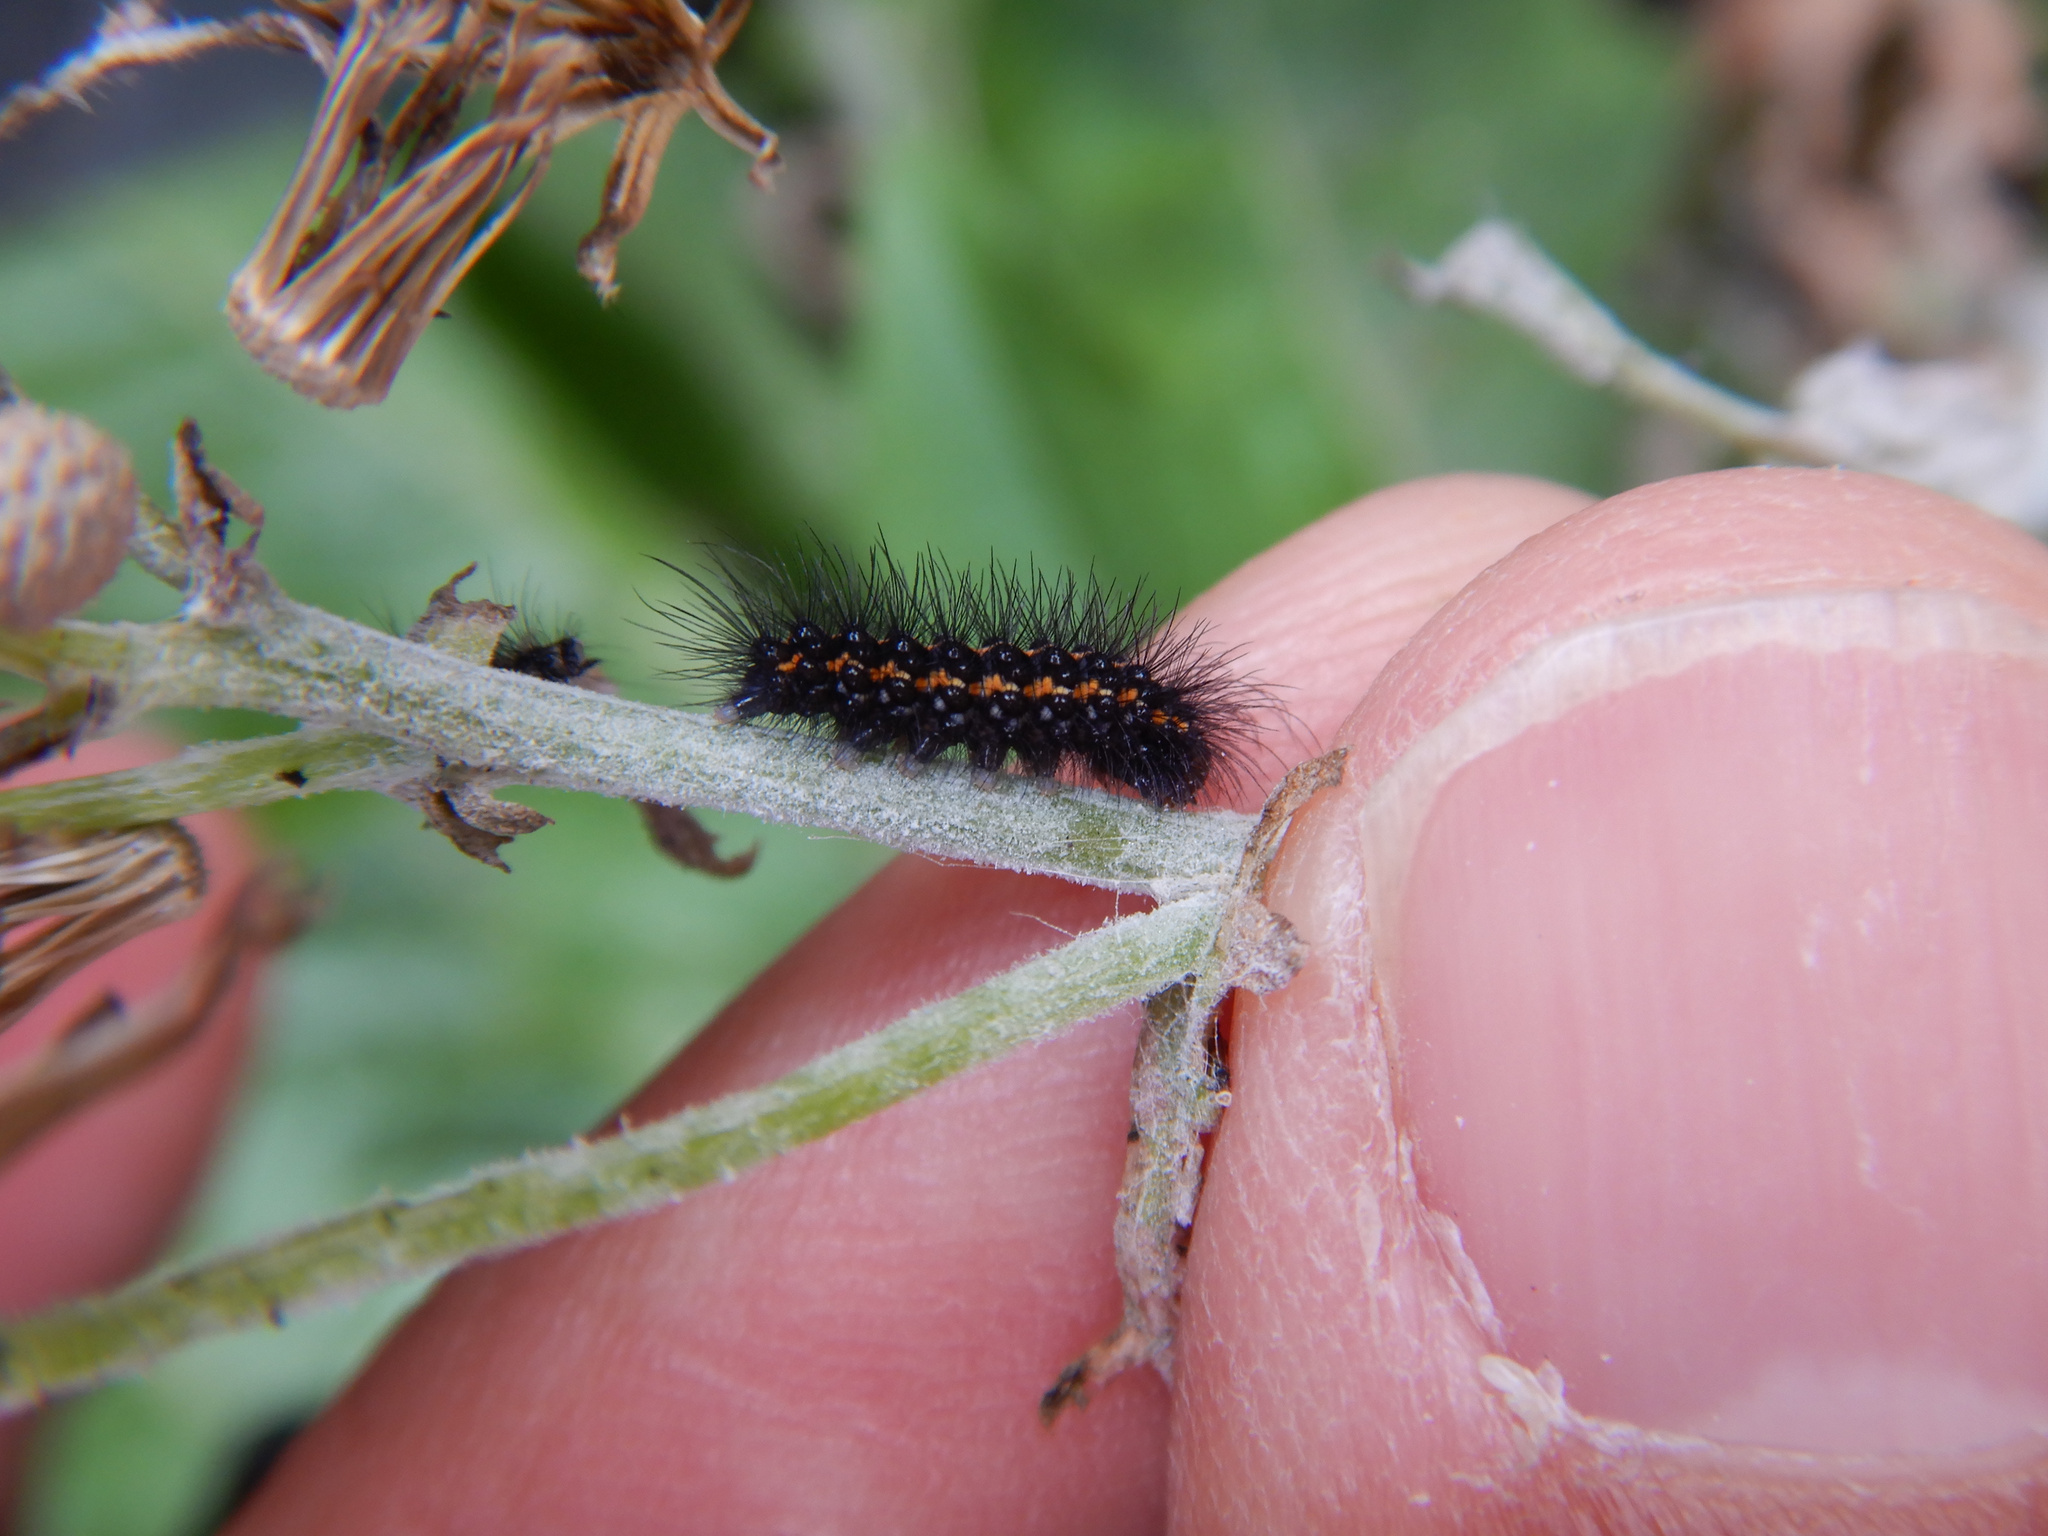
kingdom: Animalia
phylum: Arthropoda
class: Insecta
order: Lepidoptera
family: Erebidae
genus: Nyctemera
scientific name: Nyctemera annulatum
